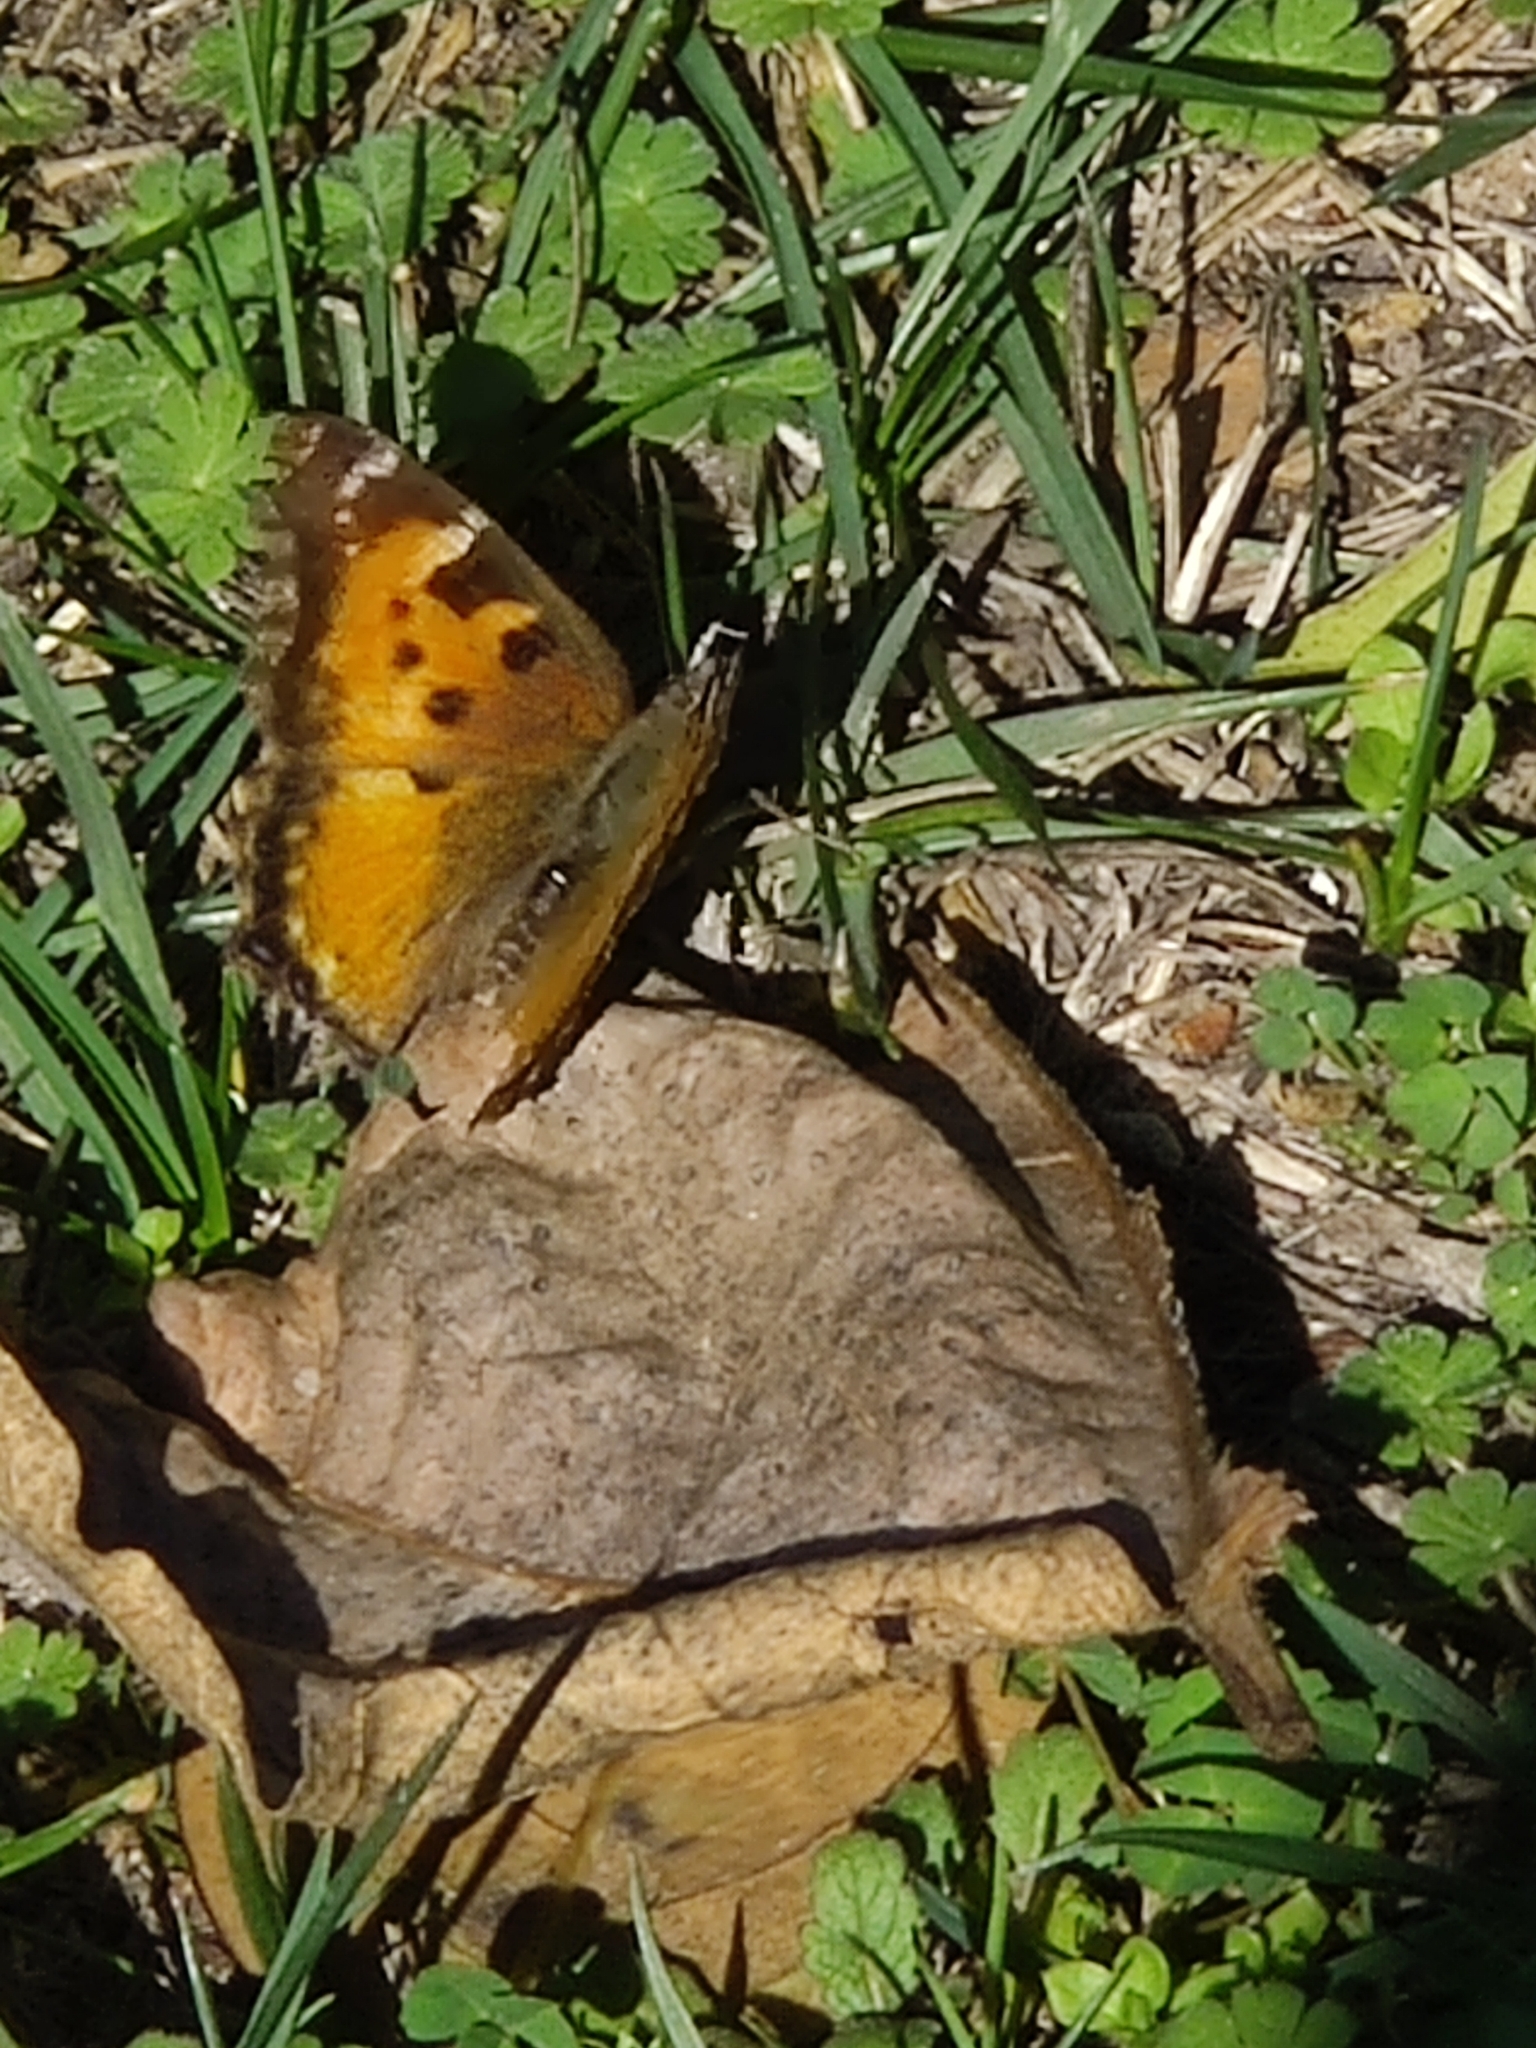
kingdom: Animalia
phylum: Arthropoda
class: Insecta
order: Lepidoptera
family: Nymphalidae
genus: Nymphalis
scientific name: Nymphalis californica
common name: California tortoiseshell
